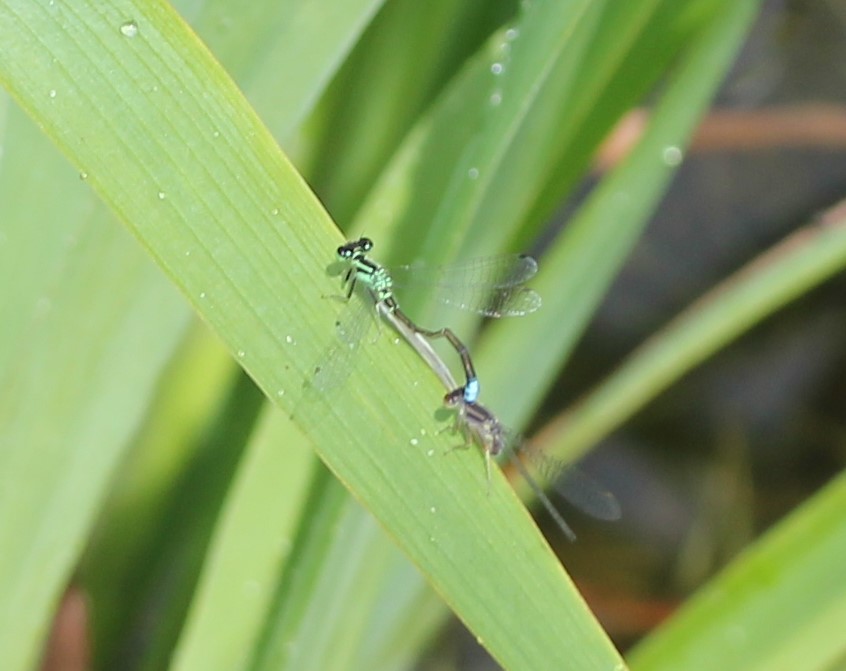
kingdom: Animalia
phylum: Arthropoda
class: Insecta
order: Odonata
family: Coenagrionidae
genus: Ischnura
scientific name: Ischnura verticalis
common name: Eastern forktail
